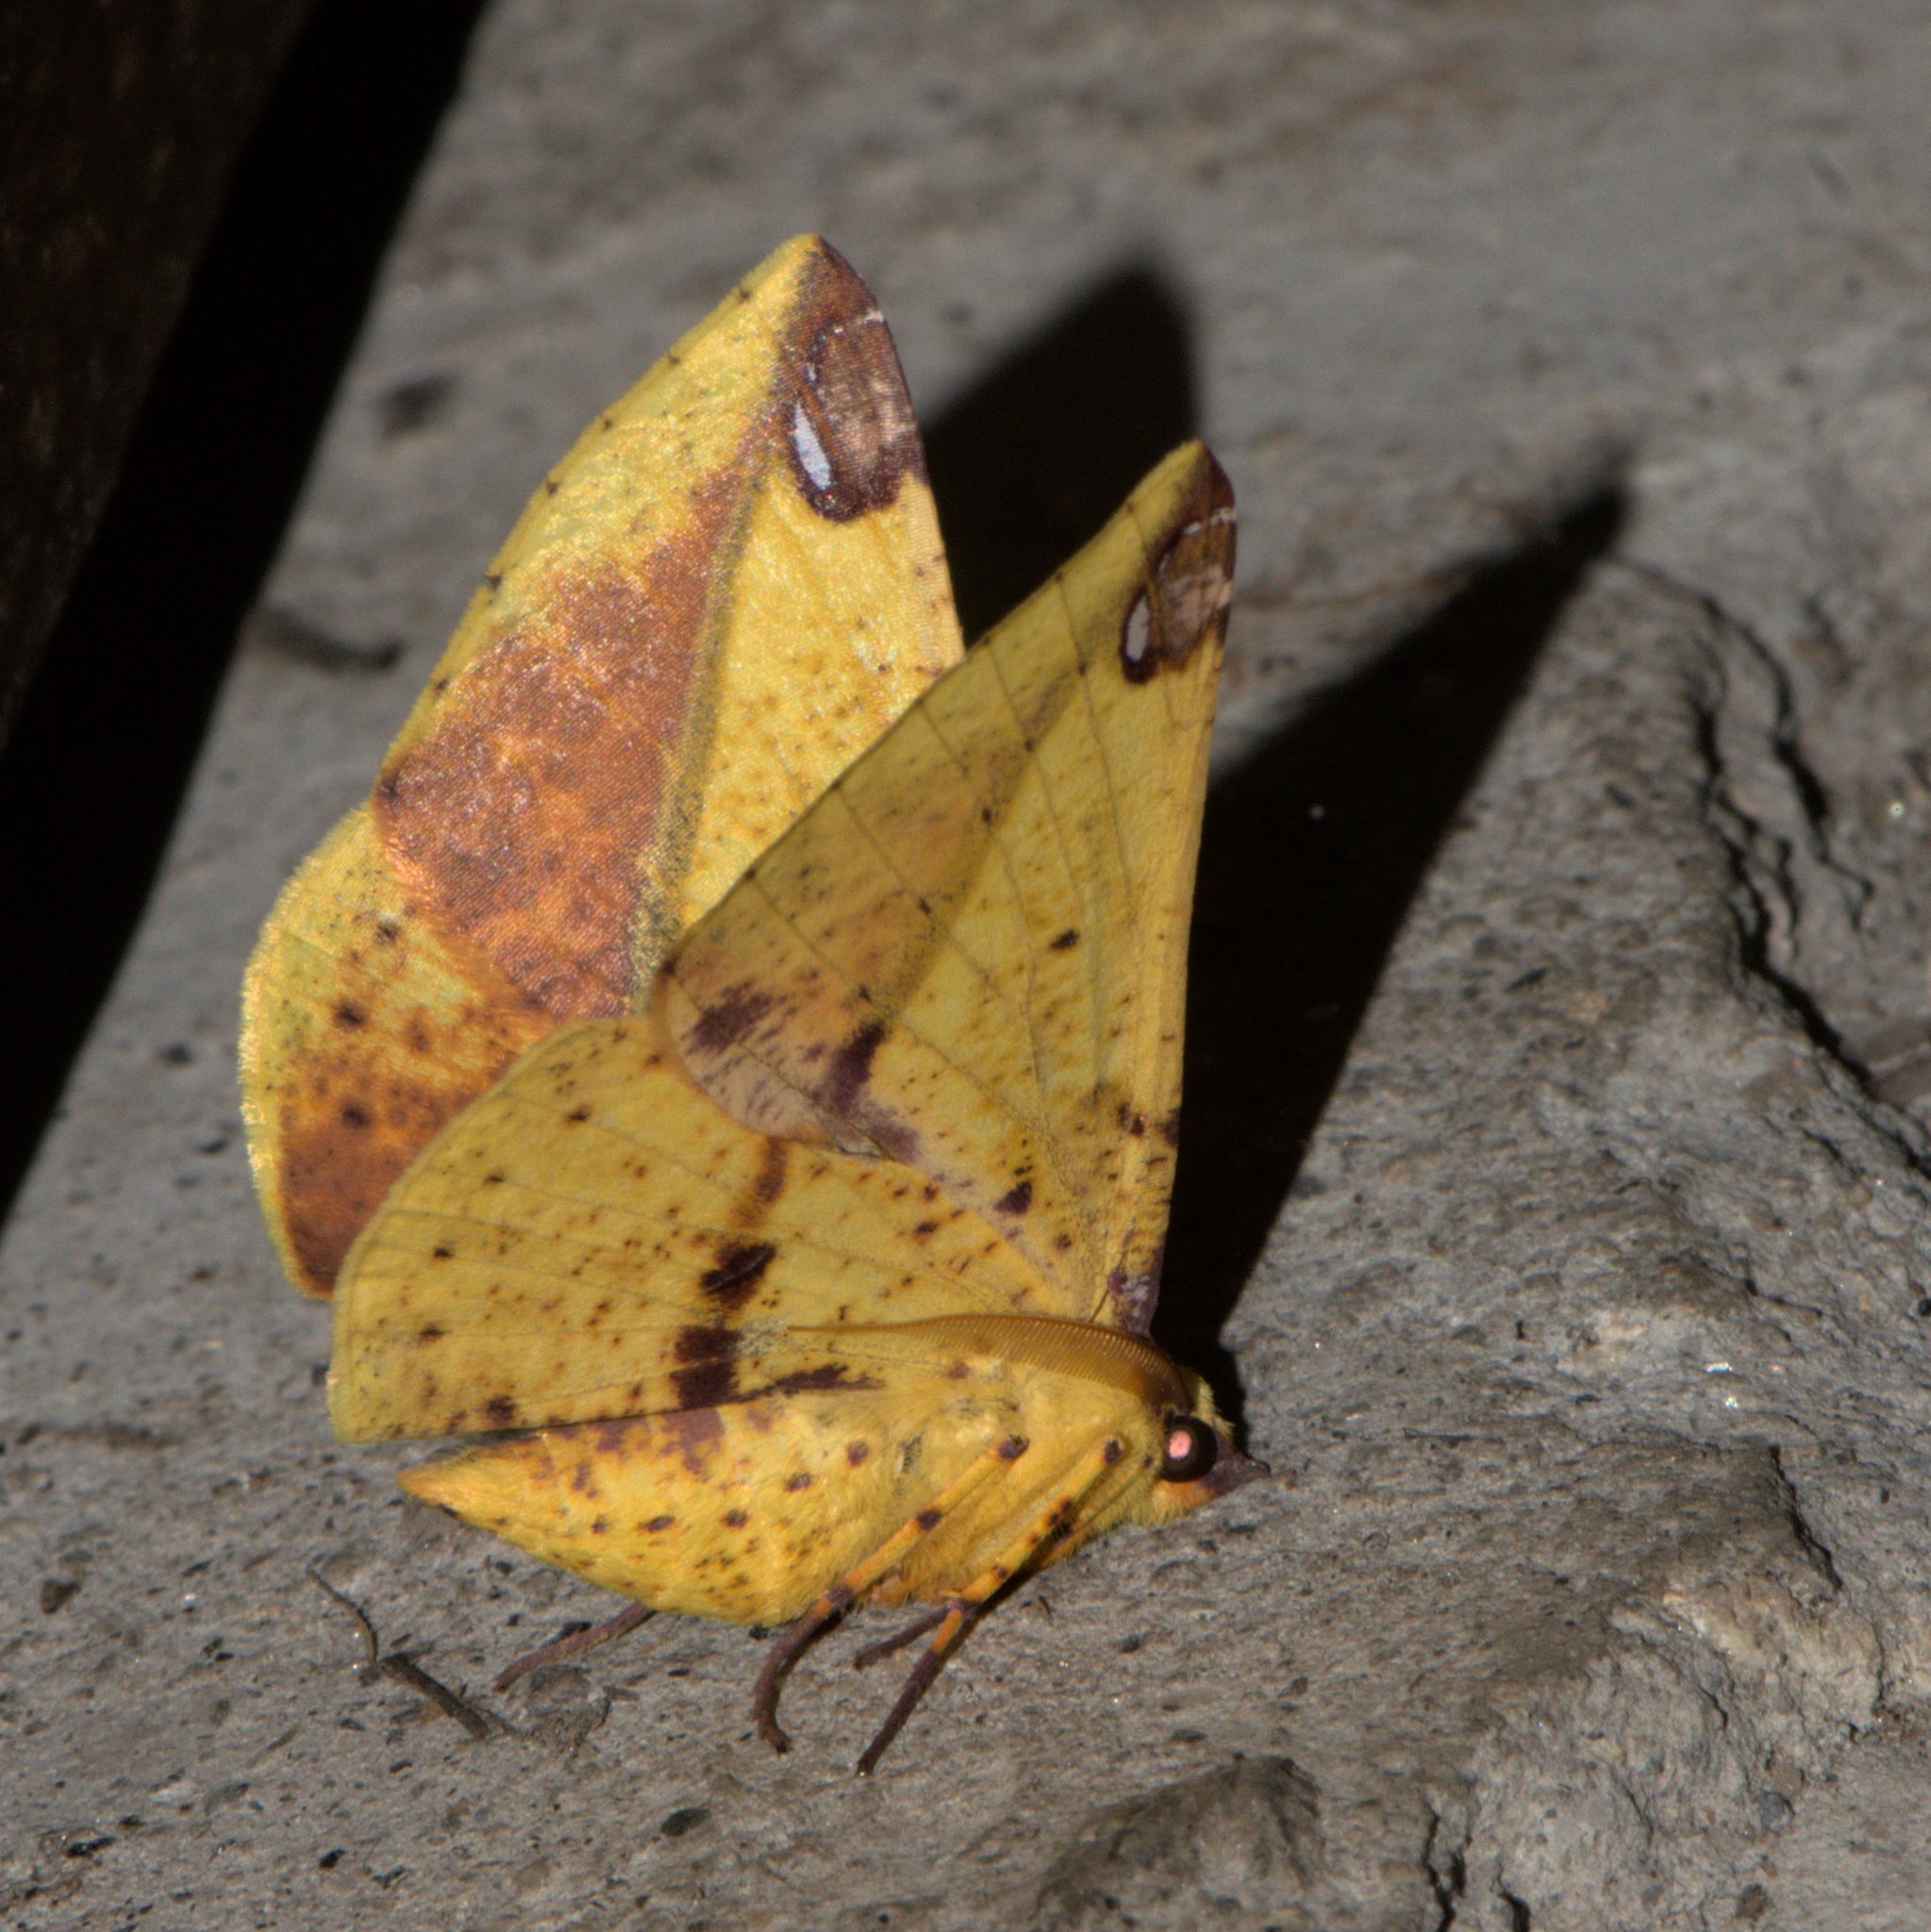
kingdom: Animalia
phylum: Arthropoda
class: Insecta
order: Lepidoptera
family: Geometridae
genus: Mimomiza
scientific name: Mimomiza cruentaria
